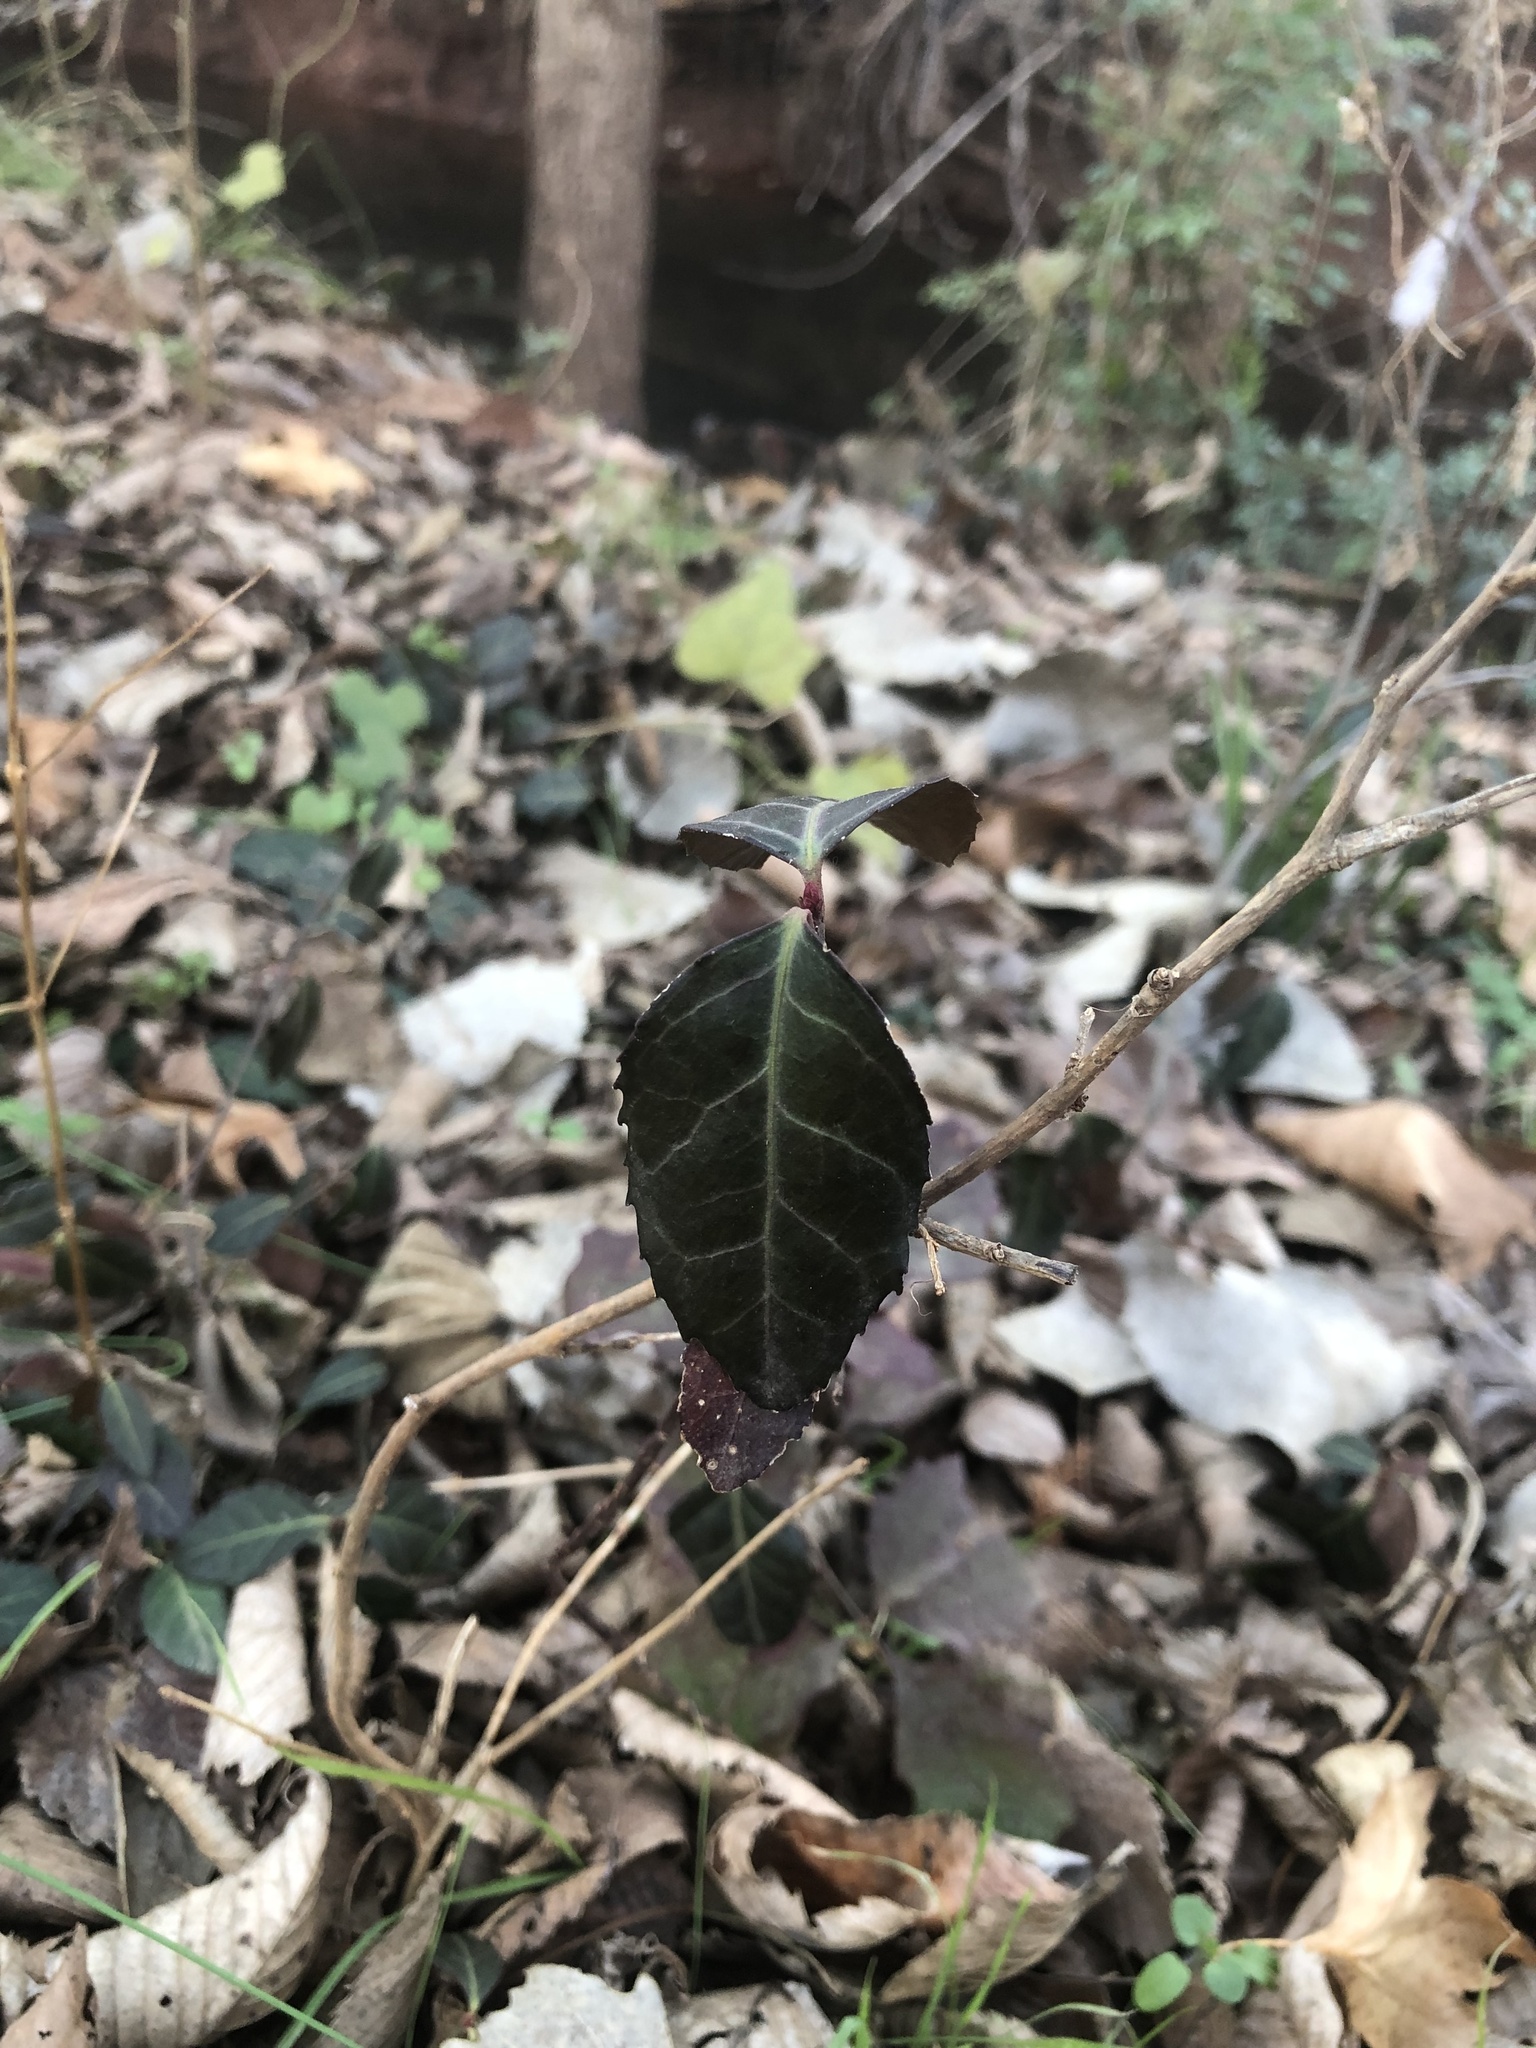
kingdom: Plantae
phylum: Tracheophyta
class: Magnoliopsida
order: Celastrales
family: Celastraceae
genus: Euonymus
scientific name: Euonymus fortunei
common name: Climbing euonymus
